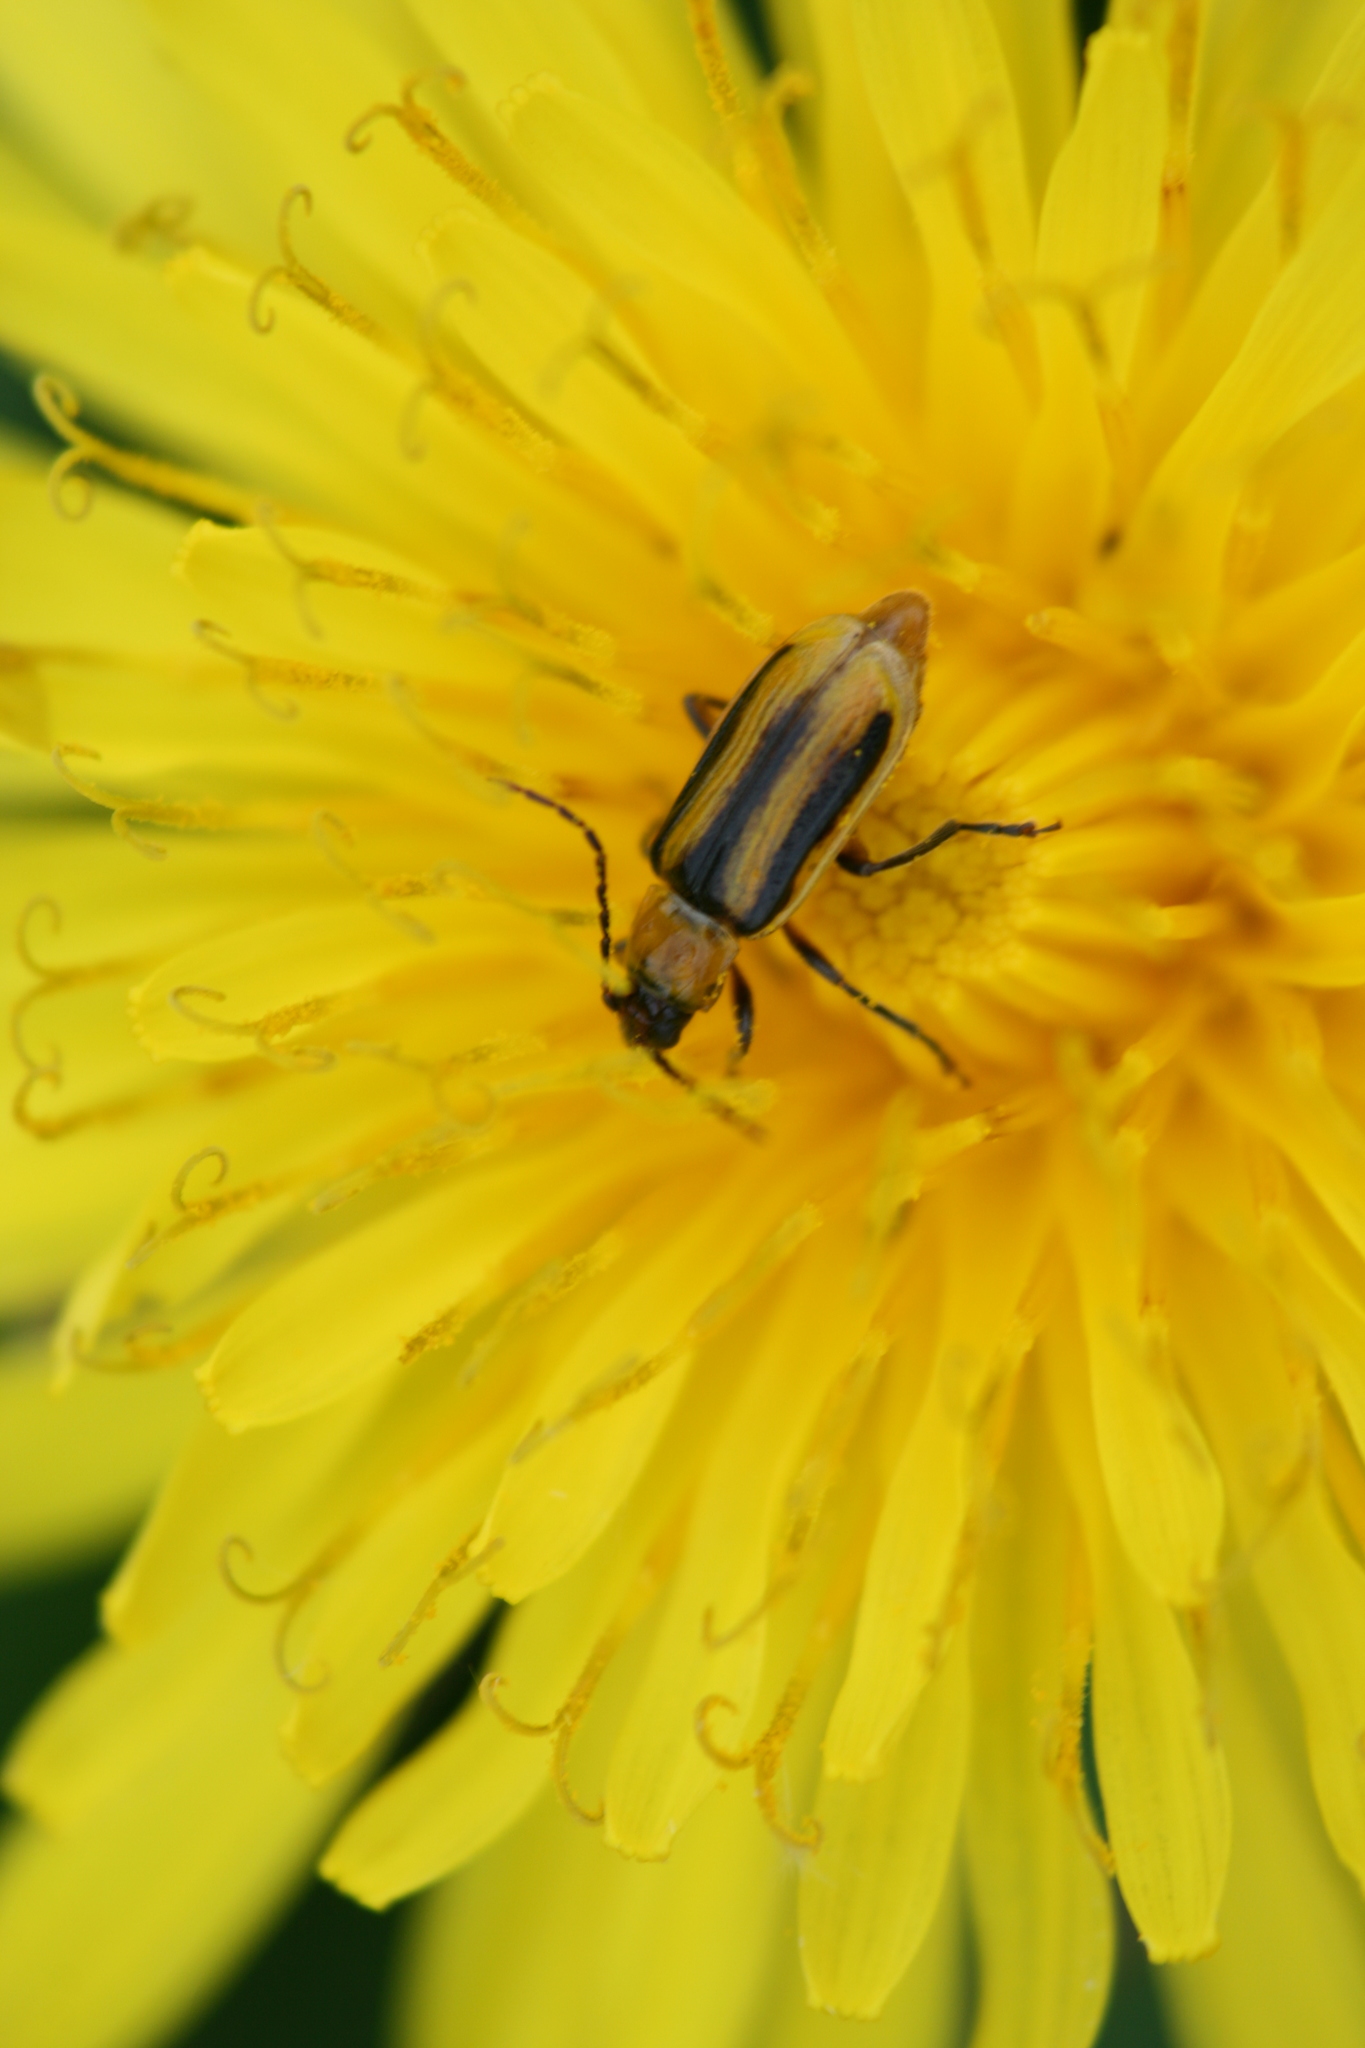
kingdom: Animalia
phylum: Arthropoda
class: Insecta
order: Coleoptera
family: Chrysomelidae
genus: Diabrotica
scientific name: Diabrotica virgifera
